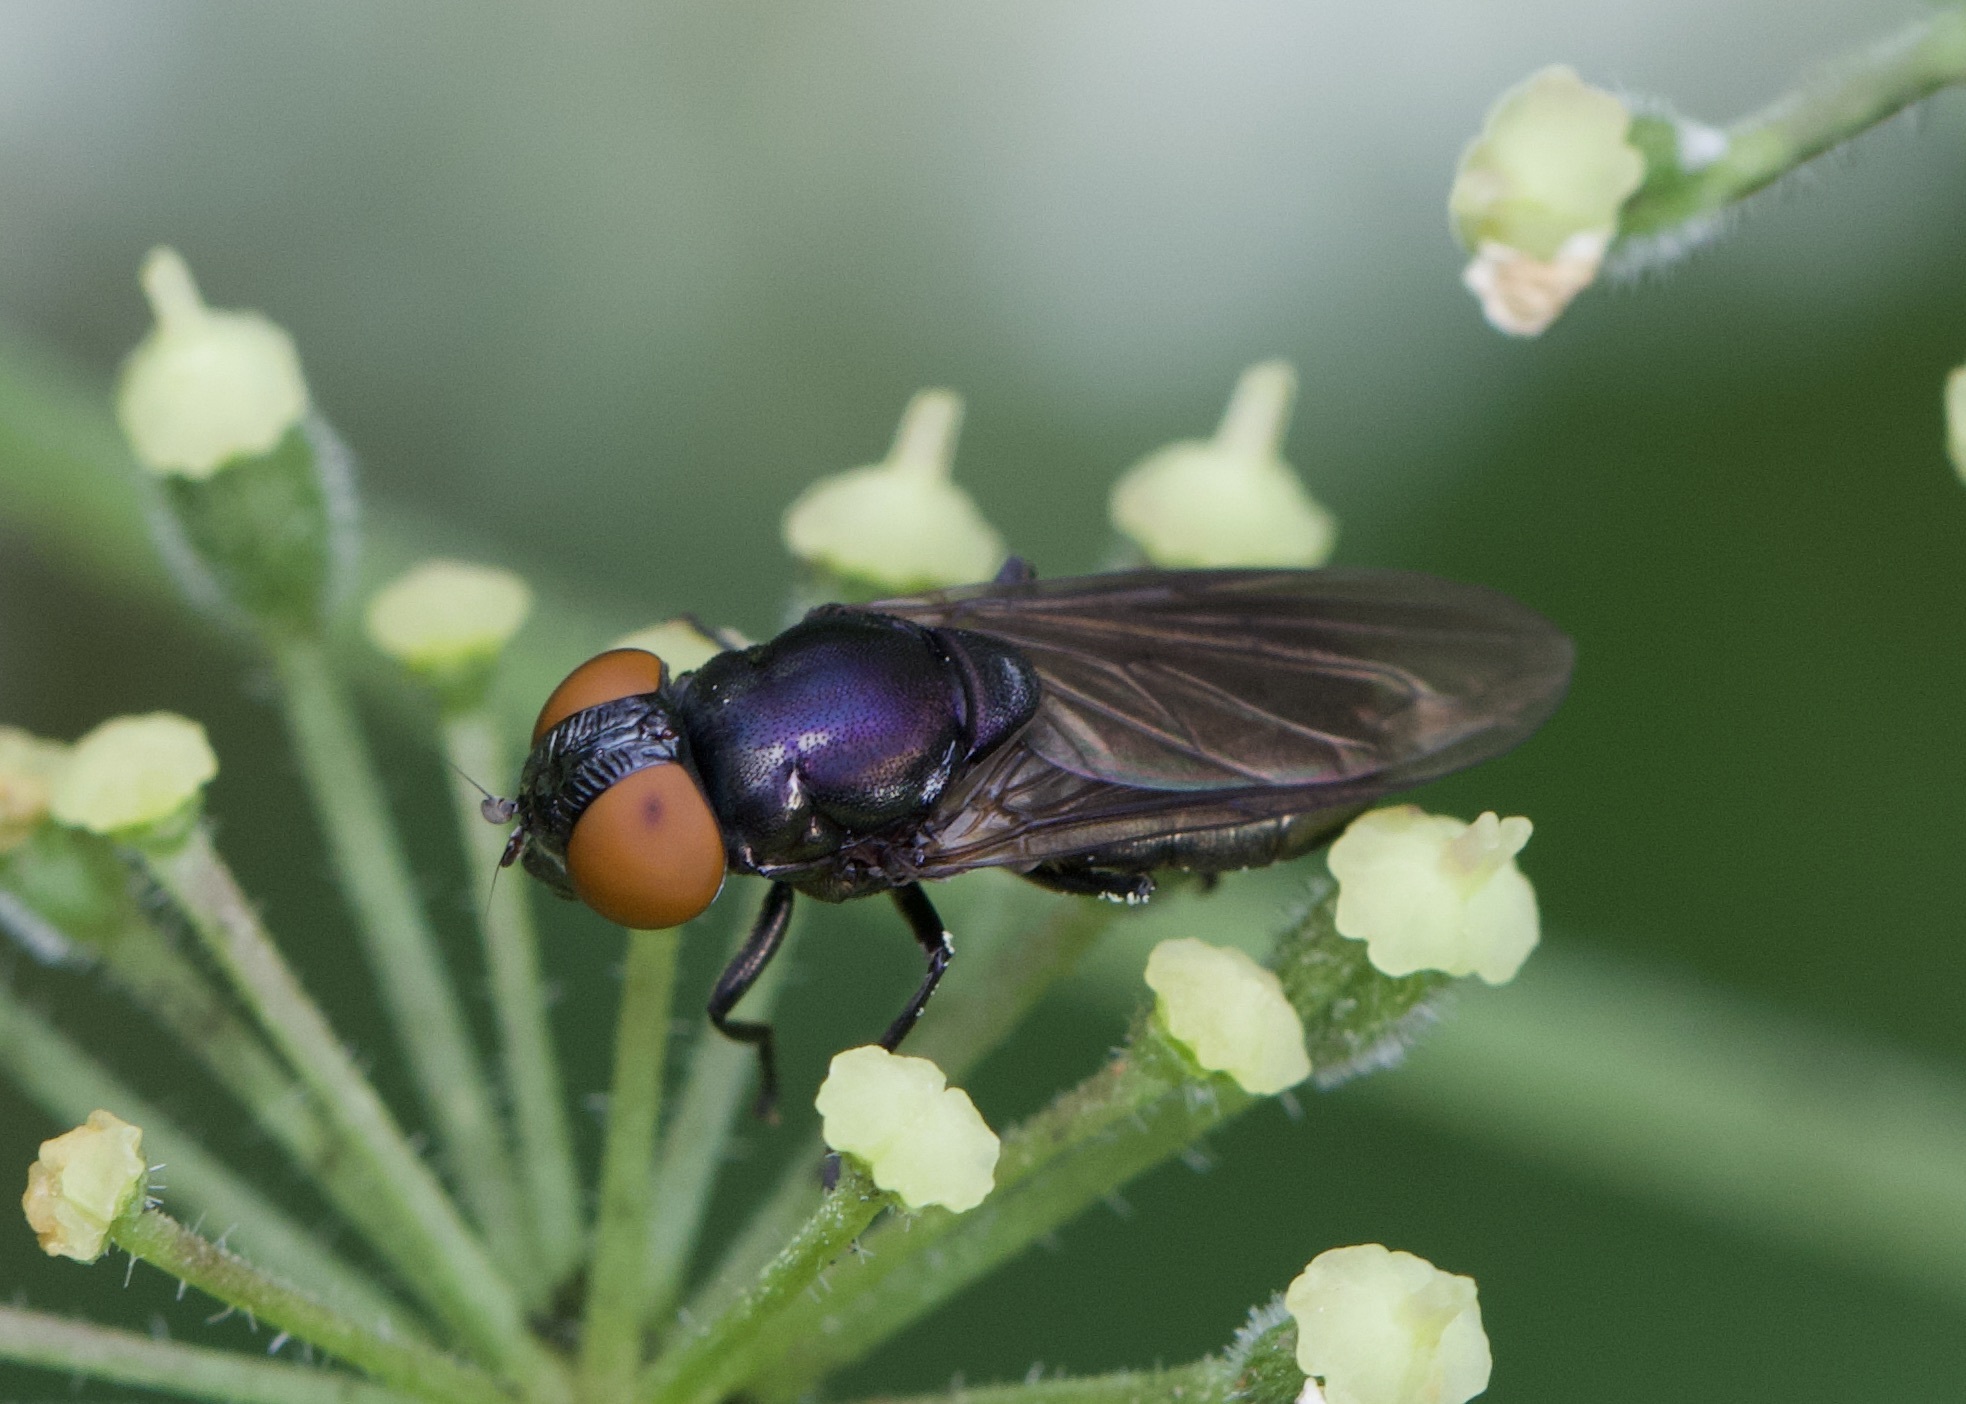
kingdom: Animalia
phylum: Arthropoda
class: Insecta
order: Diptera
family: Syrphidae
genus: Chrysogaster
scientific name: Chrysogaster solstitialis
